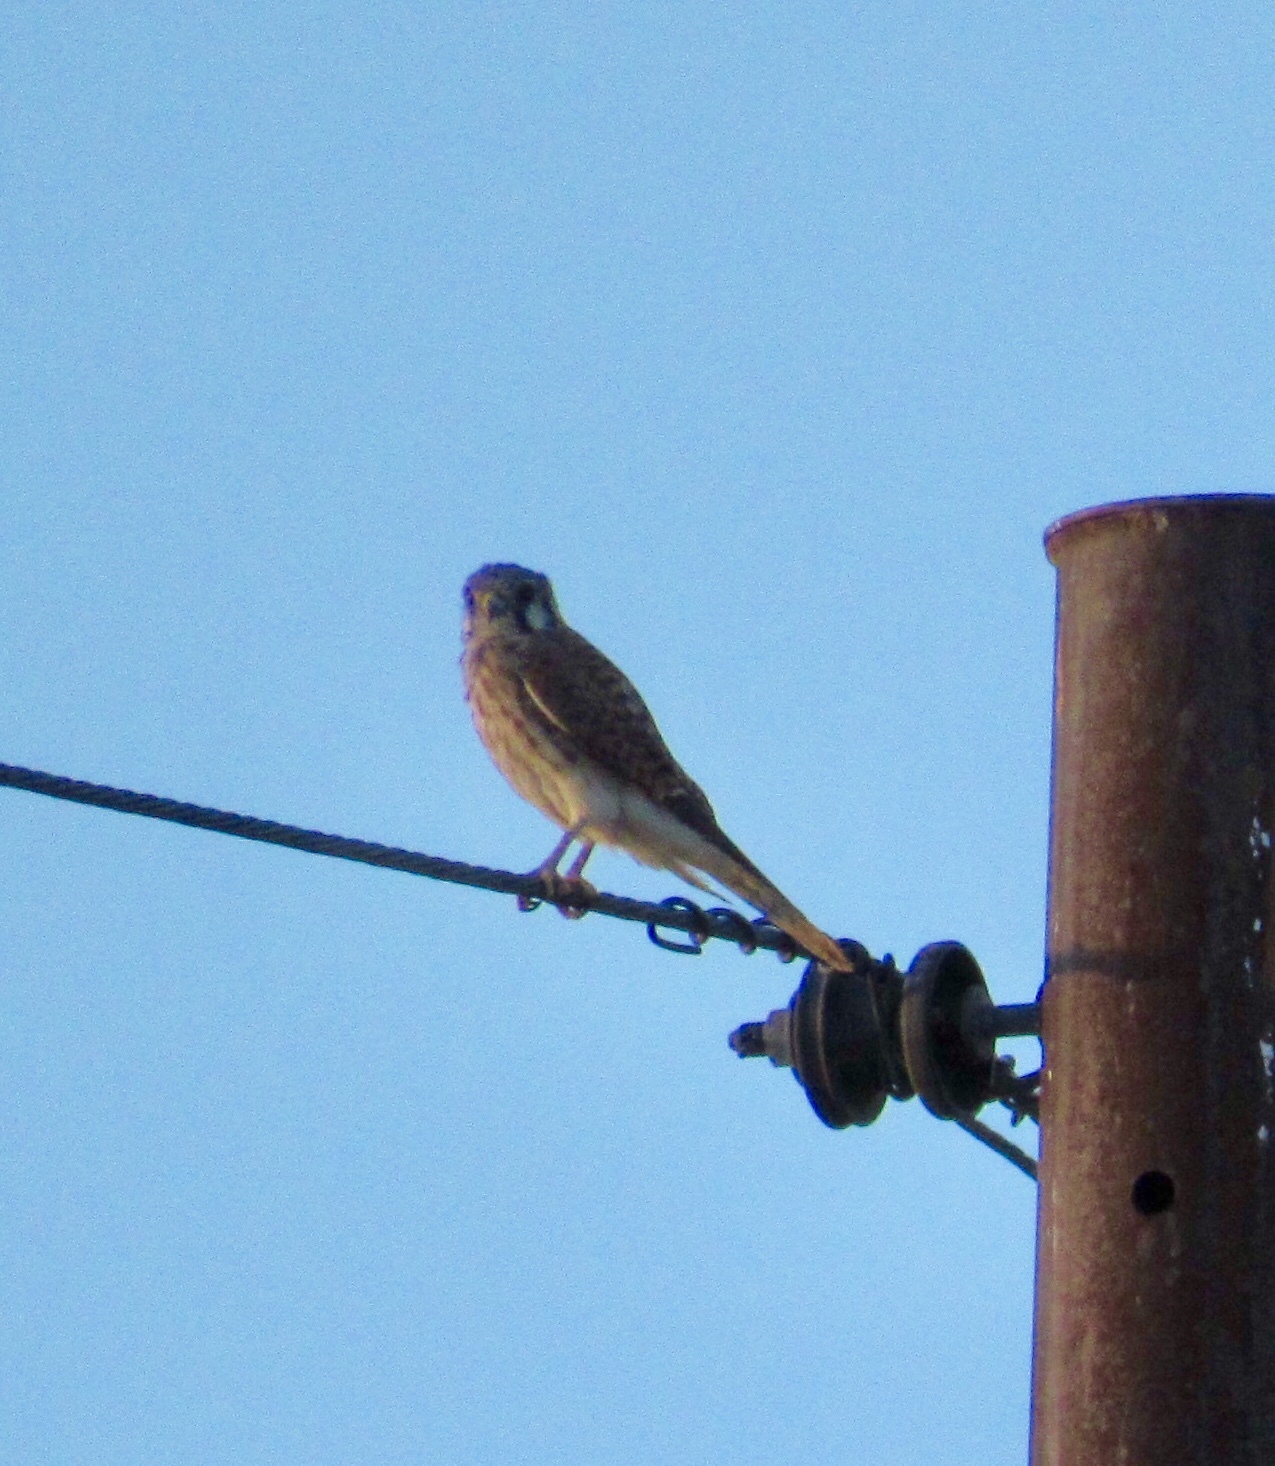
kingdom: Animalia
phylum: Chordata
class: Aves
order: Falconiformes
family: Falconidae
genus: Falco
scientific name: Falco sparverius
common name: American kestrel
